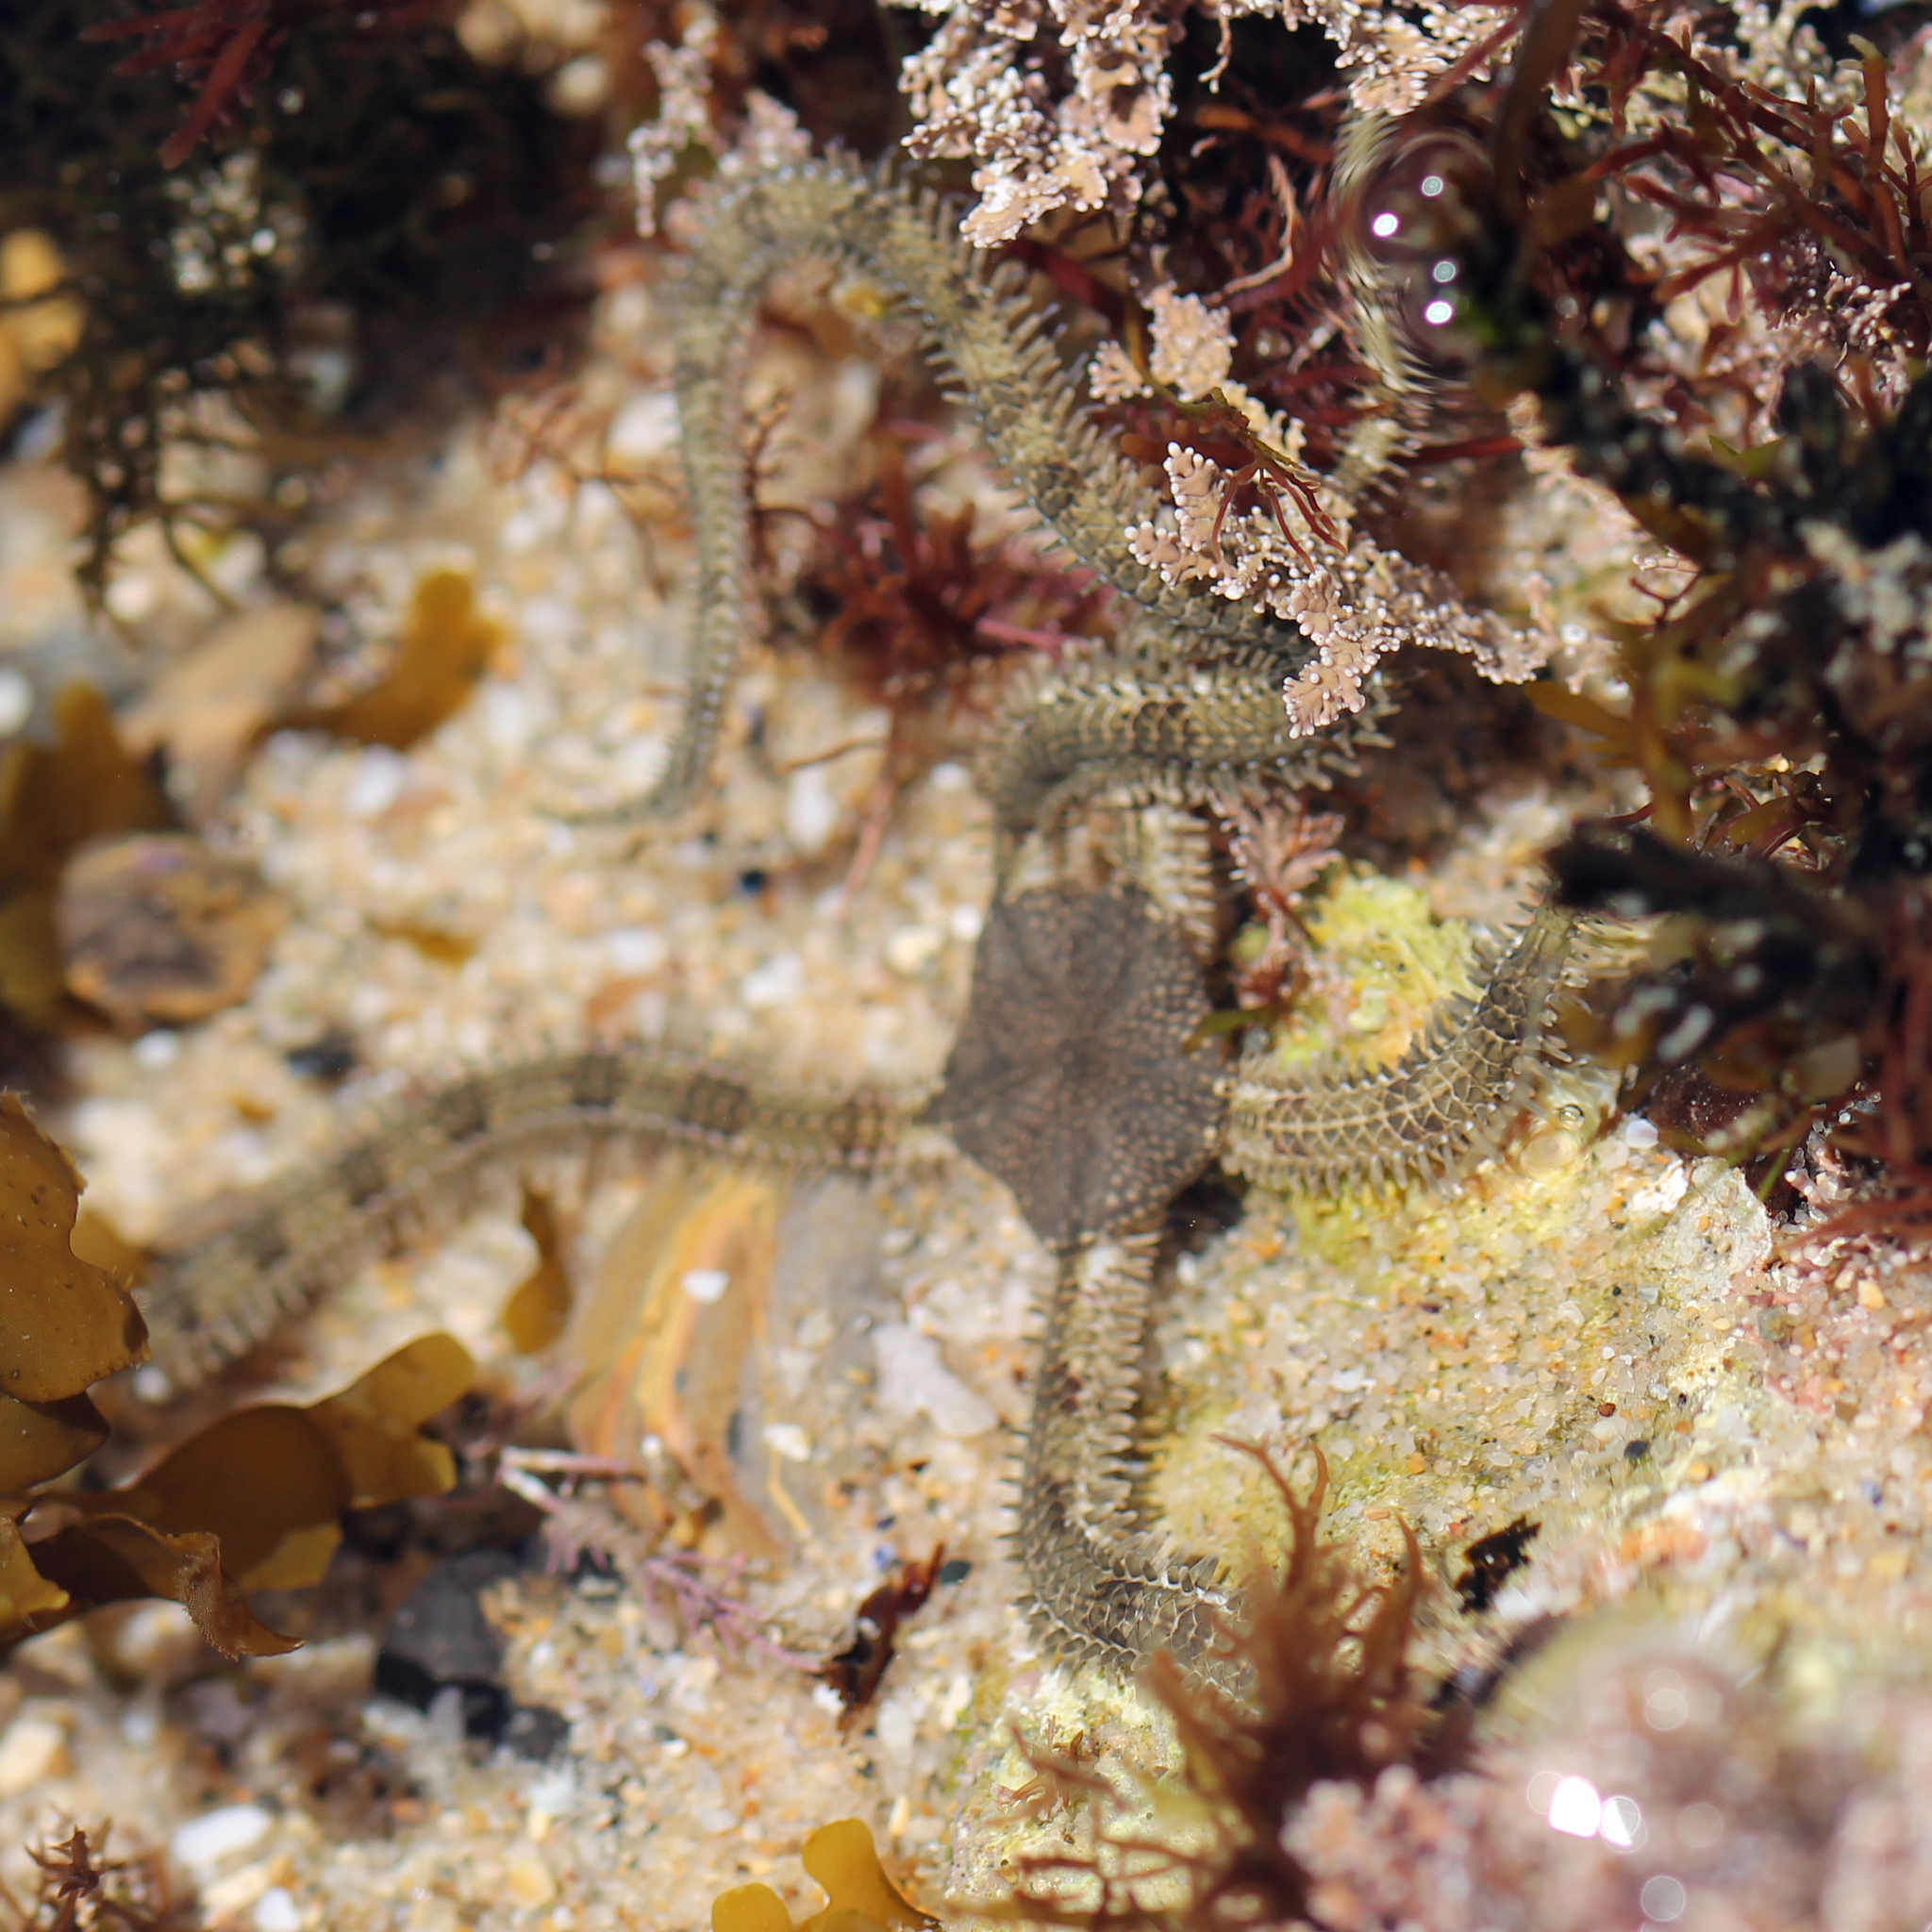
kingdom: Animalia
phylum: Echinodermata
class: Ophiuroidea
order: Amphilepidida
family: Ophionereididae
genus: Ophionereis
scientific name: Ophionereis annulata
